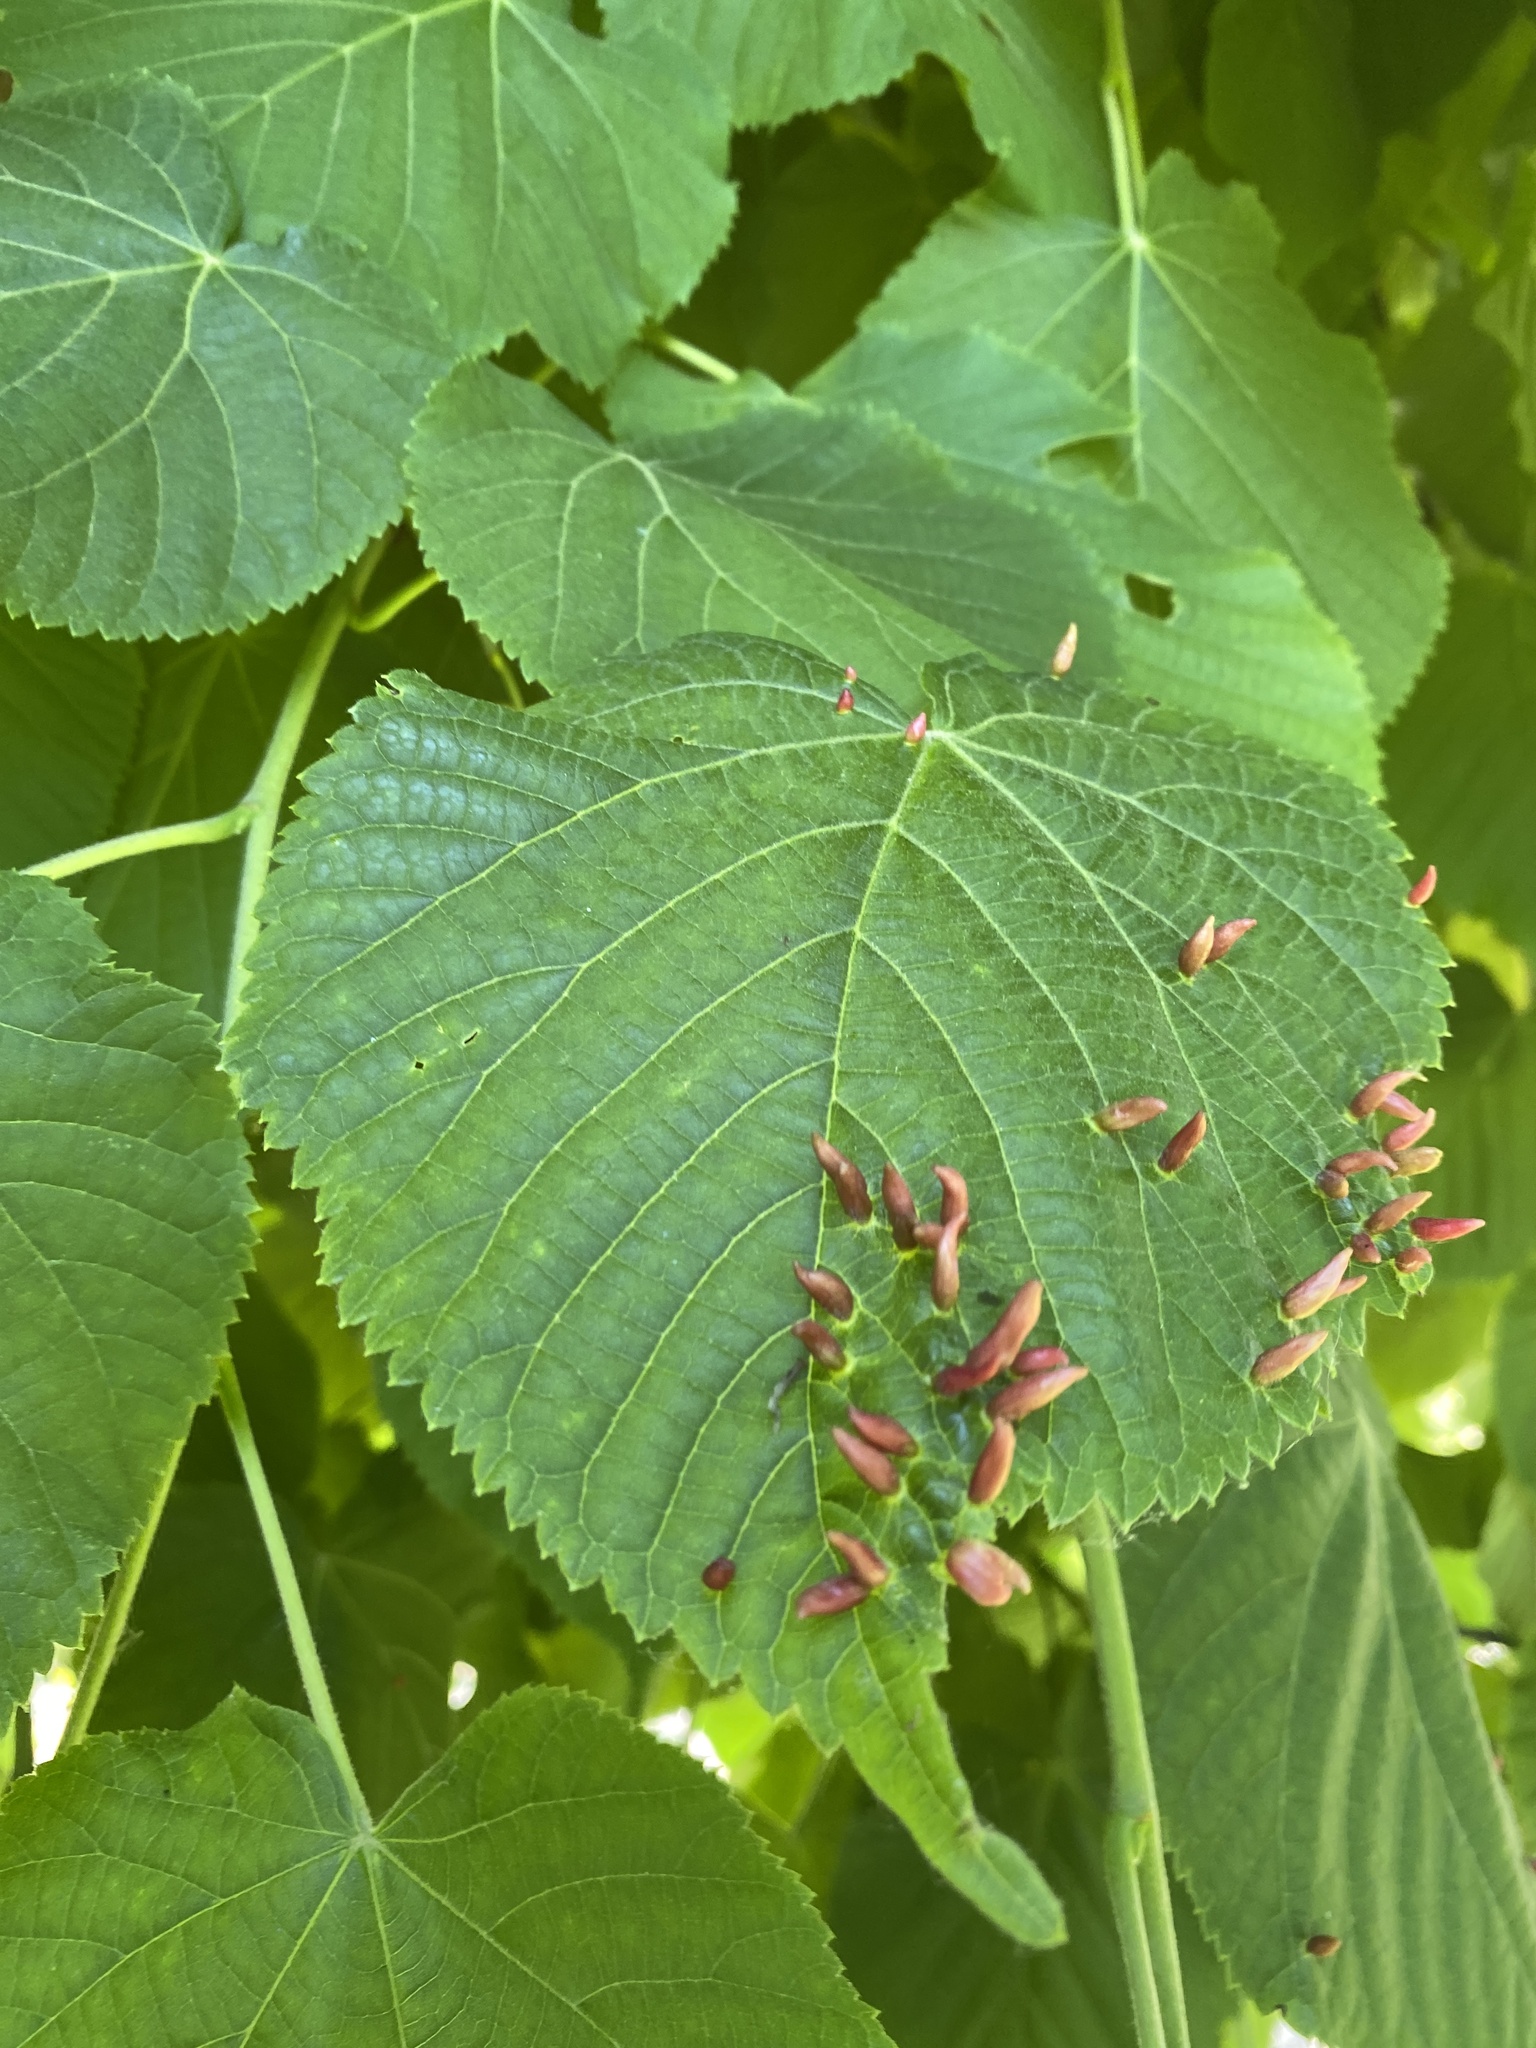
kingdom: Animalia
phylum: Arthropoda
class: Arachnida
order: Trombidiformes
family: Eriophyidae
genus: Eriophyes
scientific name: Eriophyes tiliae
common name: Red nail gall mite
